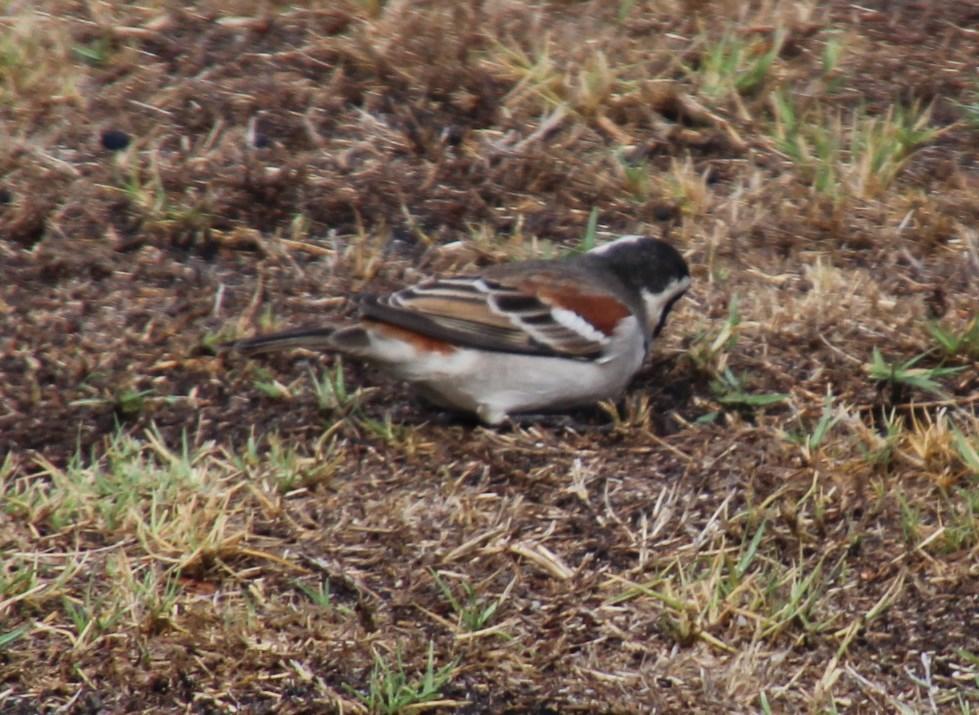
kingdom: Animalia
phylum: Chordata
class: Aves
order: Passeriformes
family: Passeridae
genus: Passer
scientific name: Passer melanurus
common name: Cape sparrow
